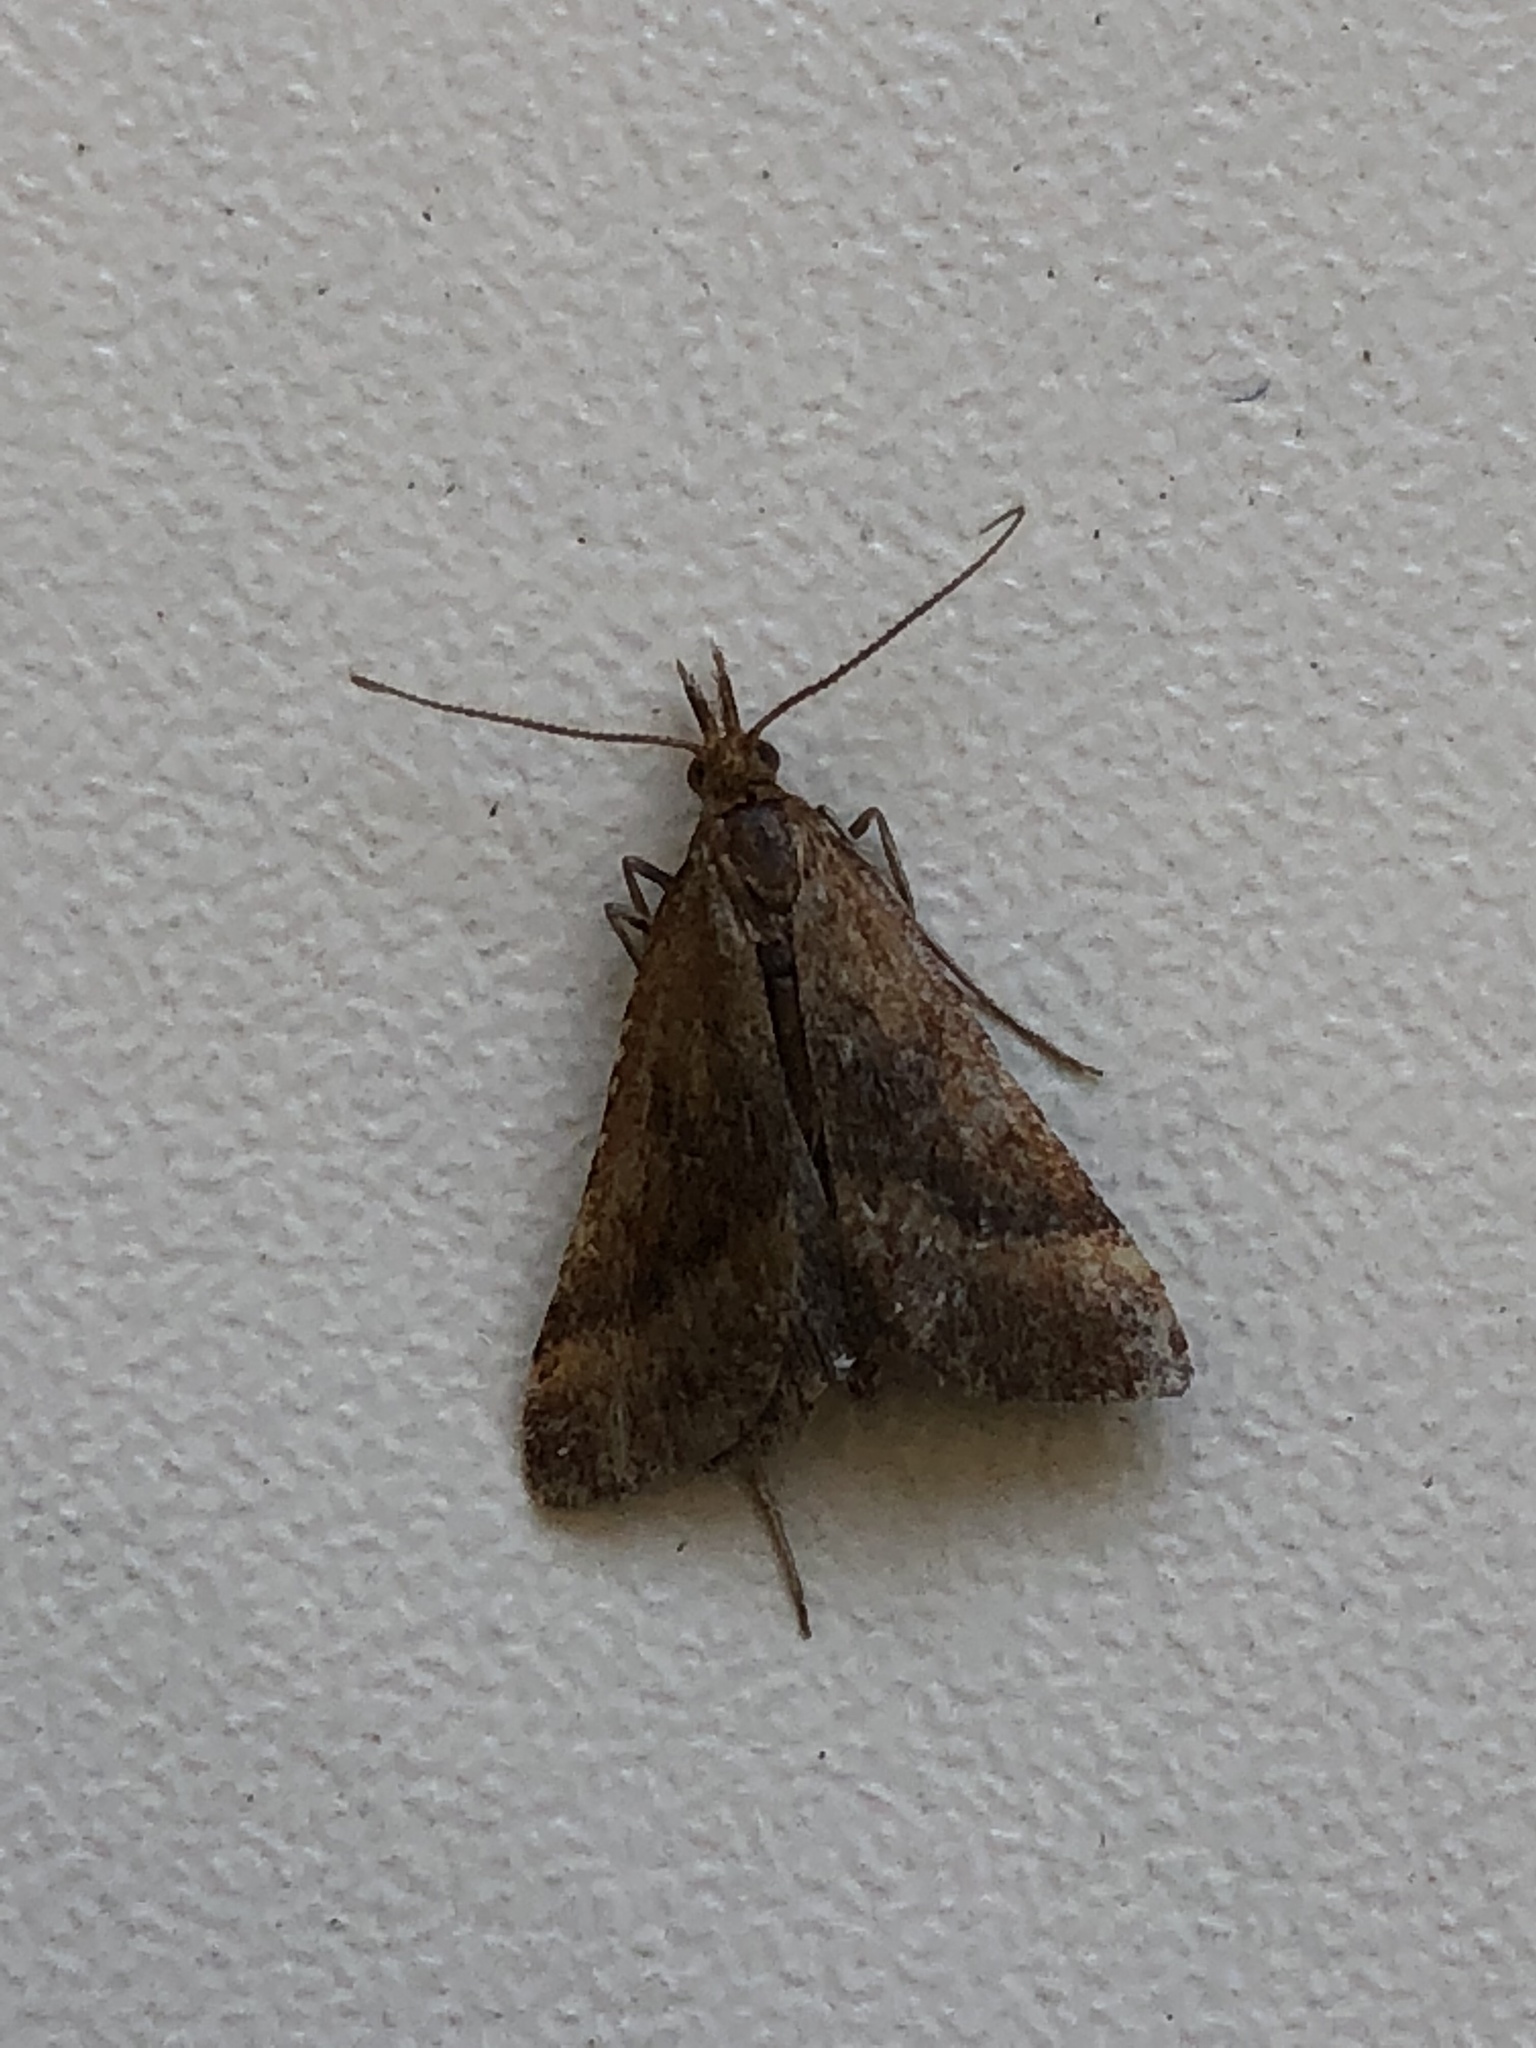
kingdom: Animalia
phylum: Arthropoda
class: Insecta
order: Lepidoptera
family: Pyralidae
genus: Synaphe
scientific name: Synaphe punctalis
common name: Long-legged tabby
